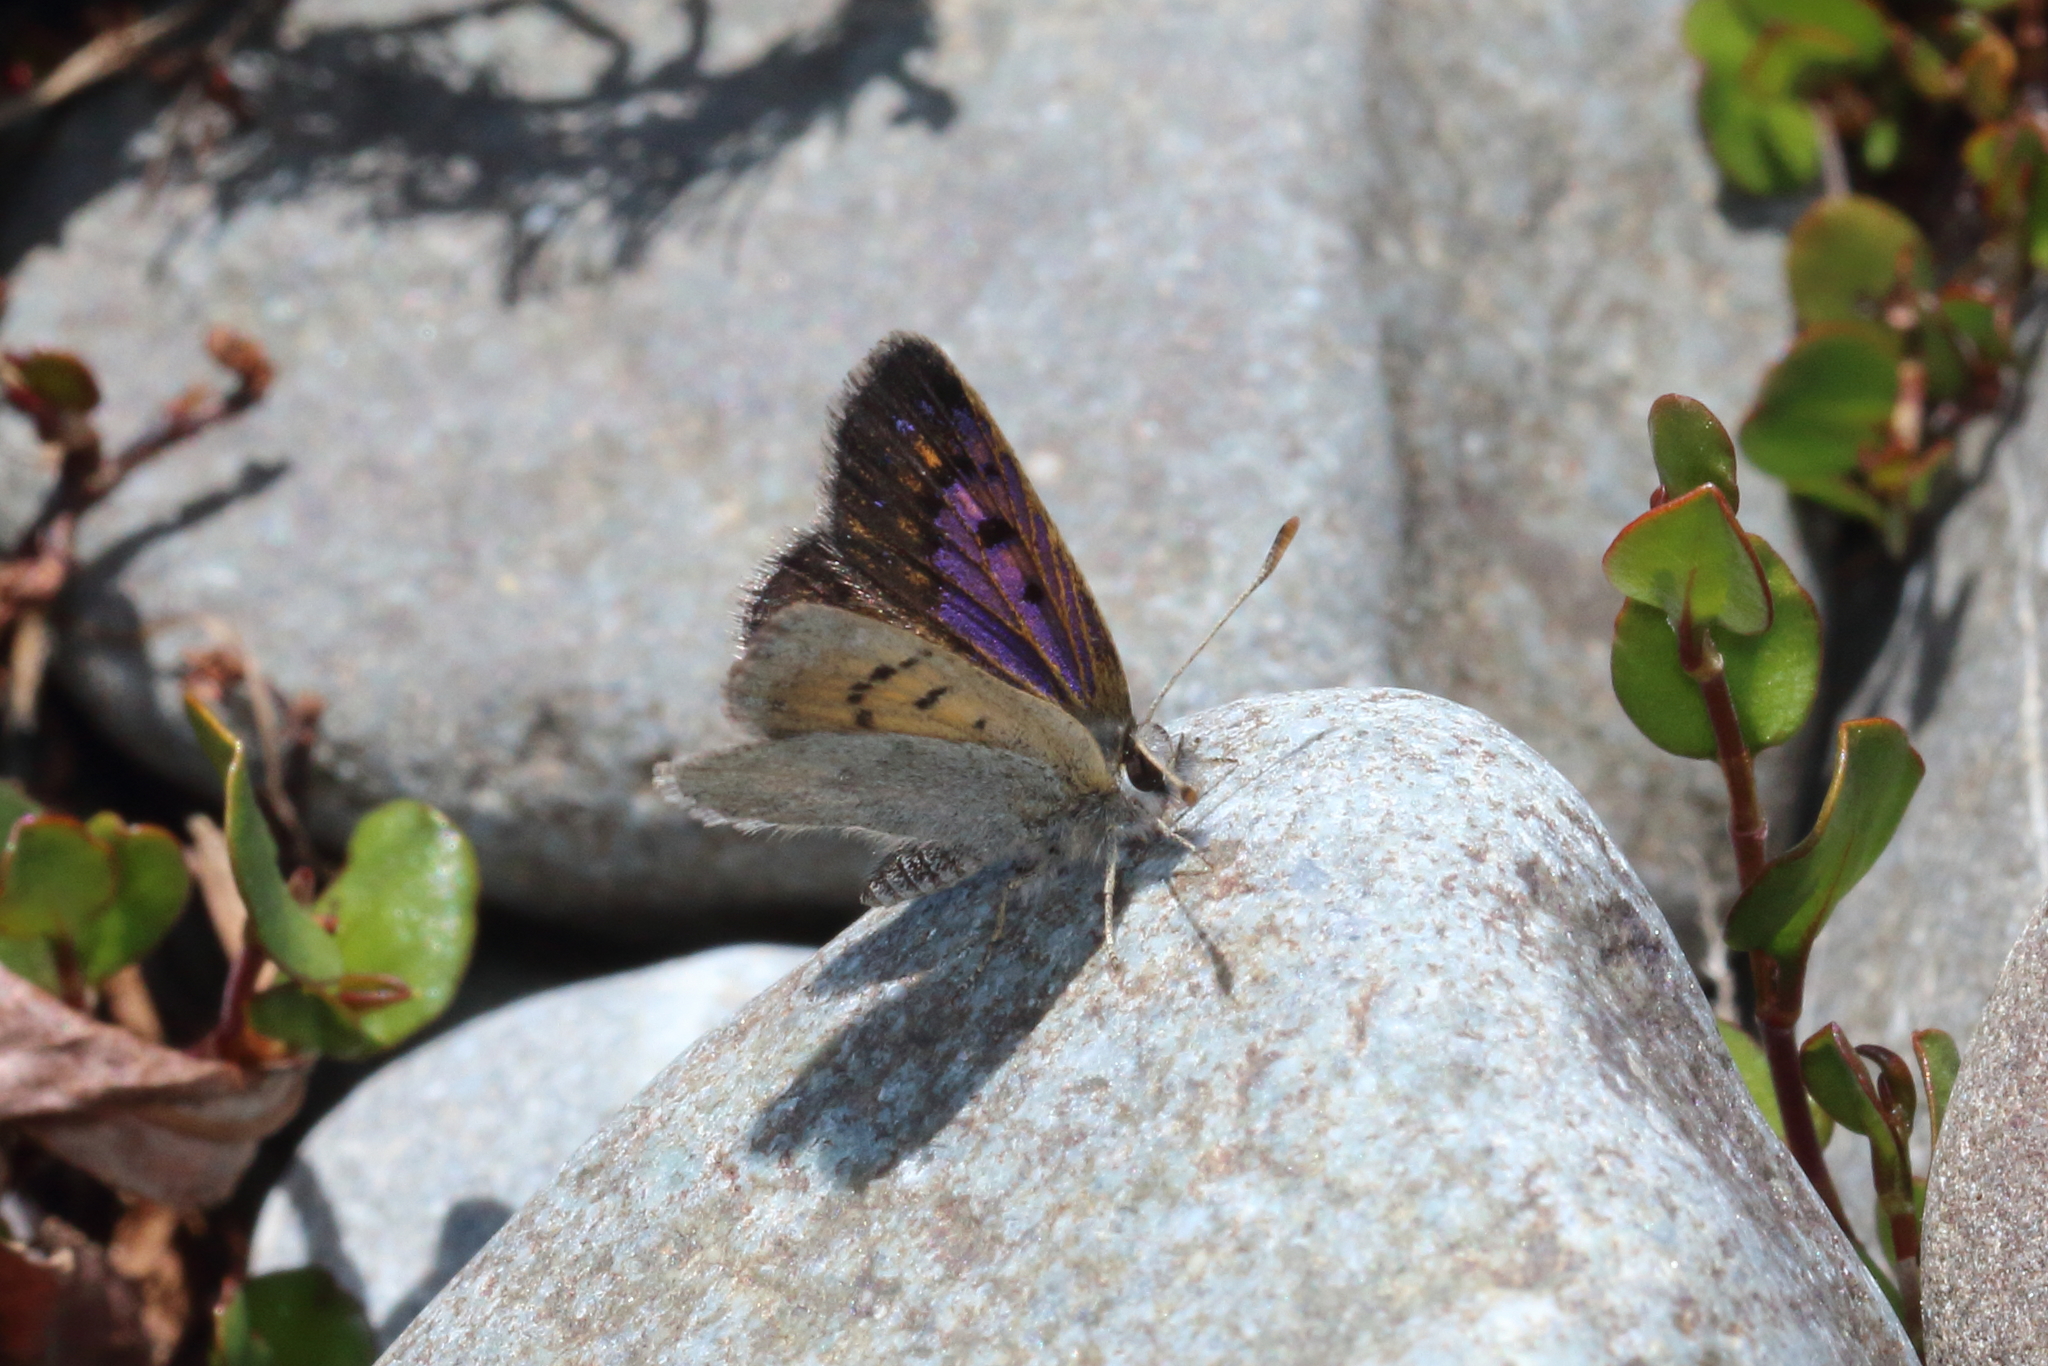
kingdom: Animalia
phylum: Arthropoda
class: Insecta
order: Lepidoptera
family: Lycaenidae
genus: Lycaena
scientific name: Lycaena boldenarum
